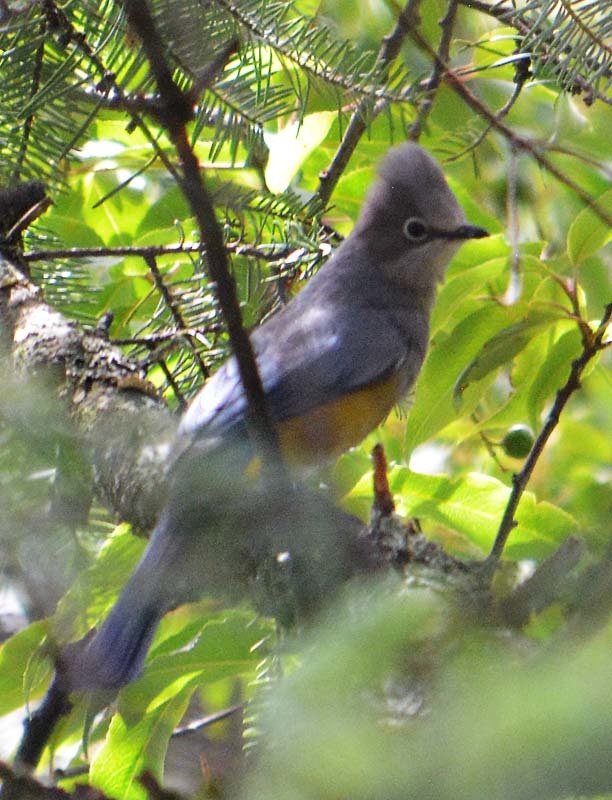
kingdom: Animalia
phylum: Chordata
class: Aves
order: Passeriformes
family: Ptilogonatidae
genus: Ptilogonys
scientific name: Ptilogonys cinereus
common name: Gray silky-flycatcher
